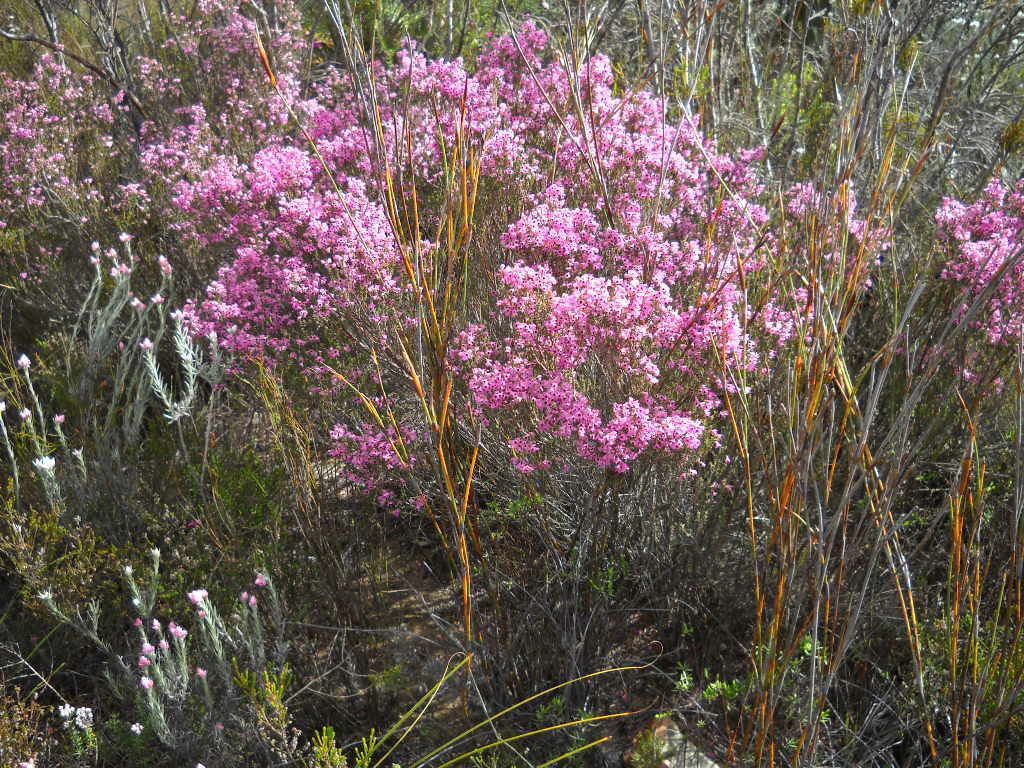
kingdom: Plantae
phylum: Tracheophyta
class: Magnoliopsida
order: Ericales
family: Ericaceae
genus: Erica
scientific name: Erica melanthera
